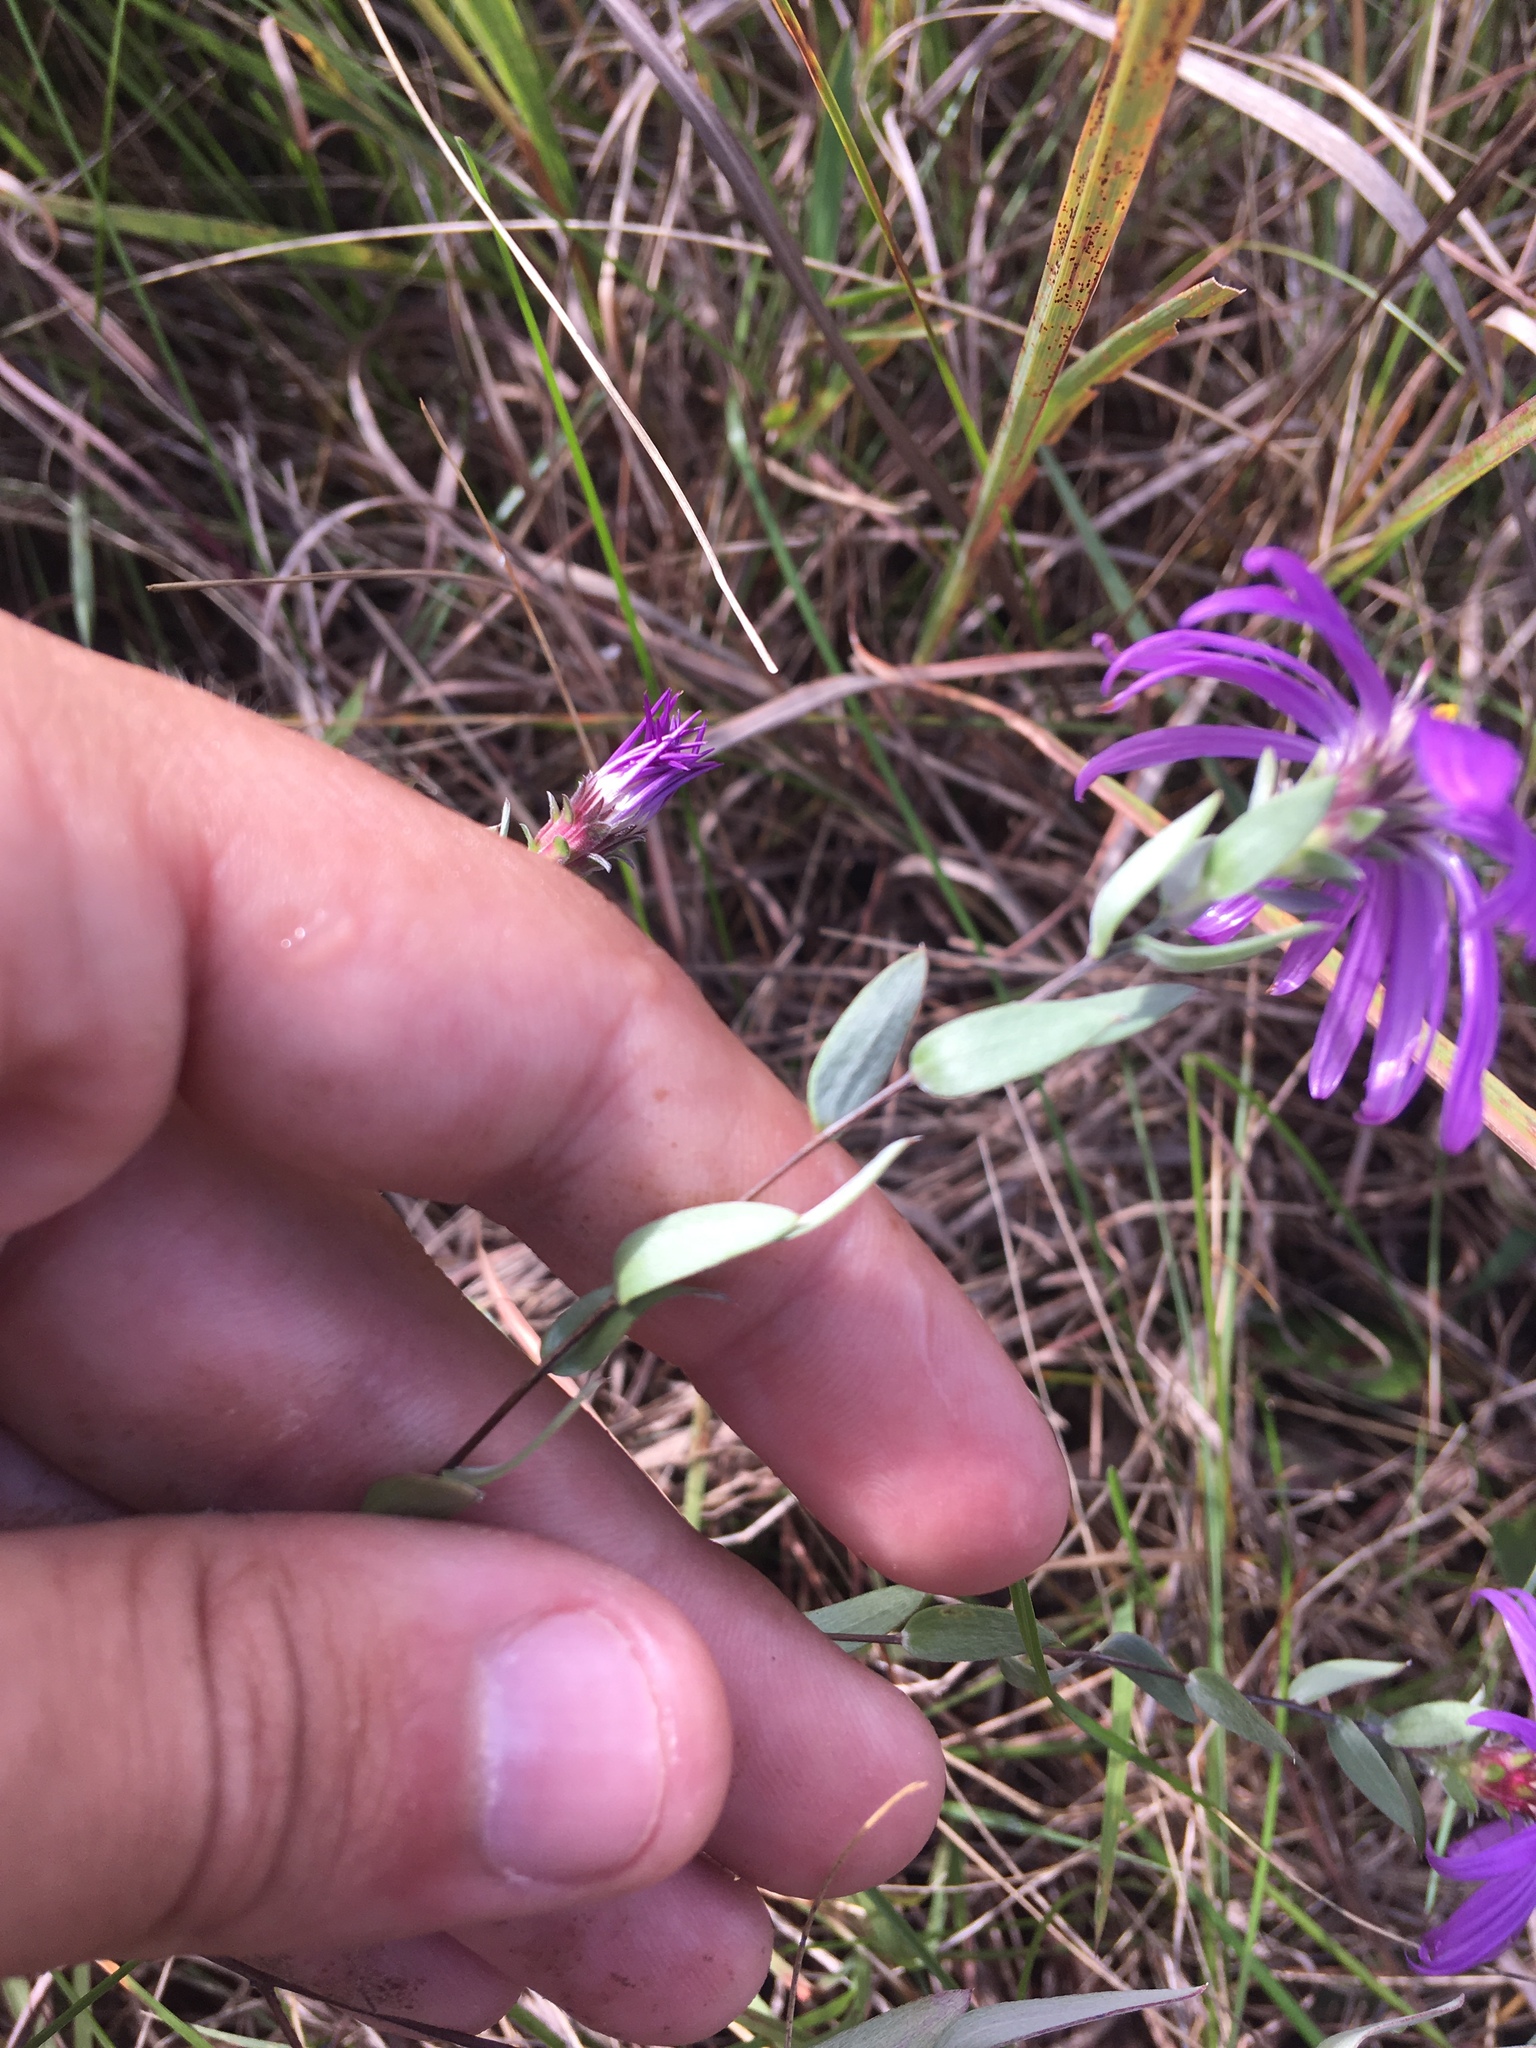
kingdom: Plantae
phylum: Tracheophyta
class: Magnoliopsida
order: Asterales
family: Asteraceae
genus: Symphyotrichum
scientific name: Symphyotrichum sericeum
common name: Silky aster
